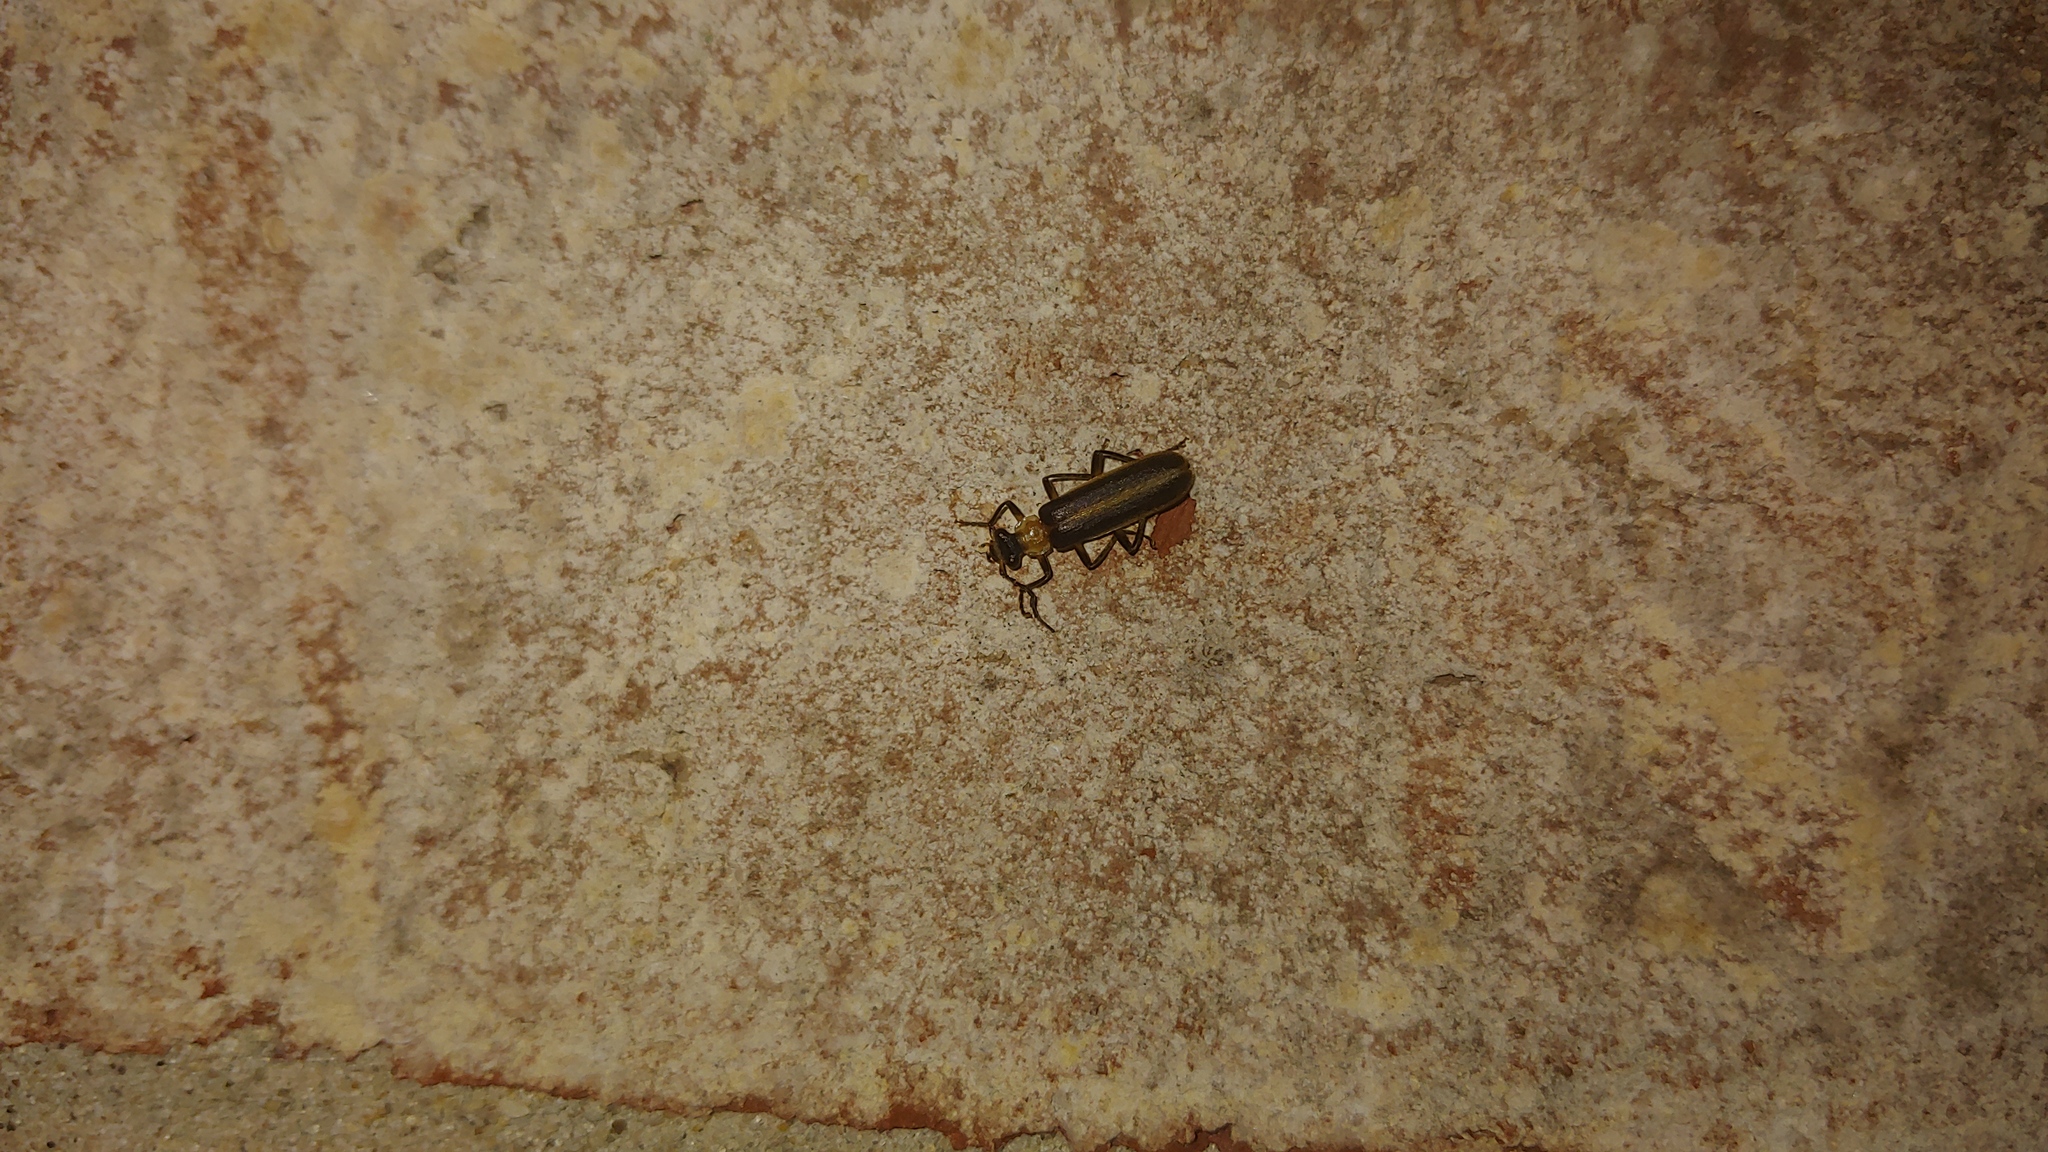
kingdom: Animalia
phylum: Arthropoda
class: Insecta
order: Coleoptera
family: Cantharidae
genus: Podabrus
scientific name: Podabrus flavicollis
